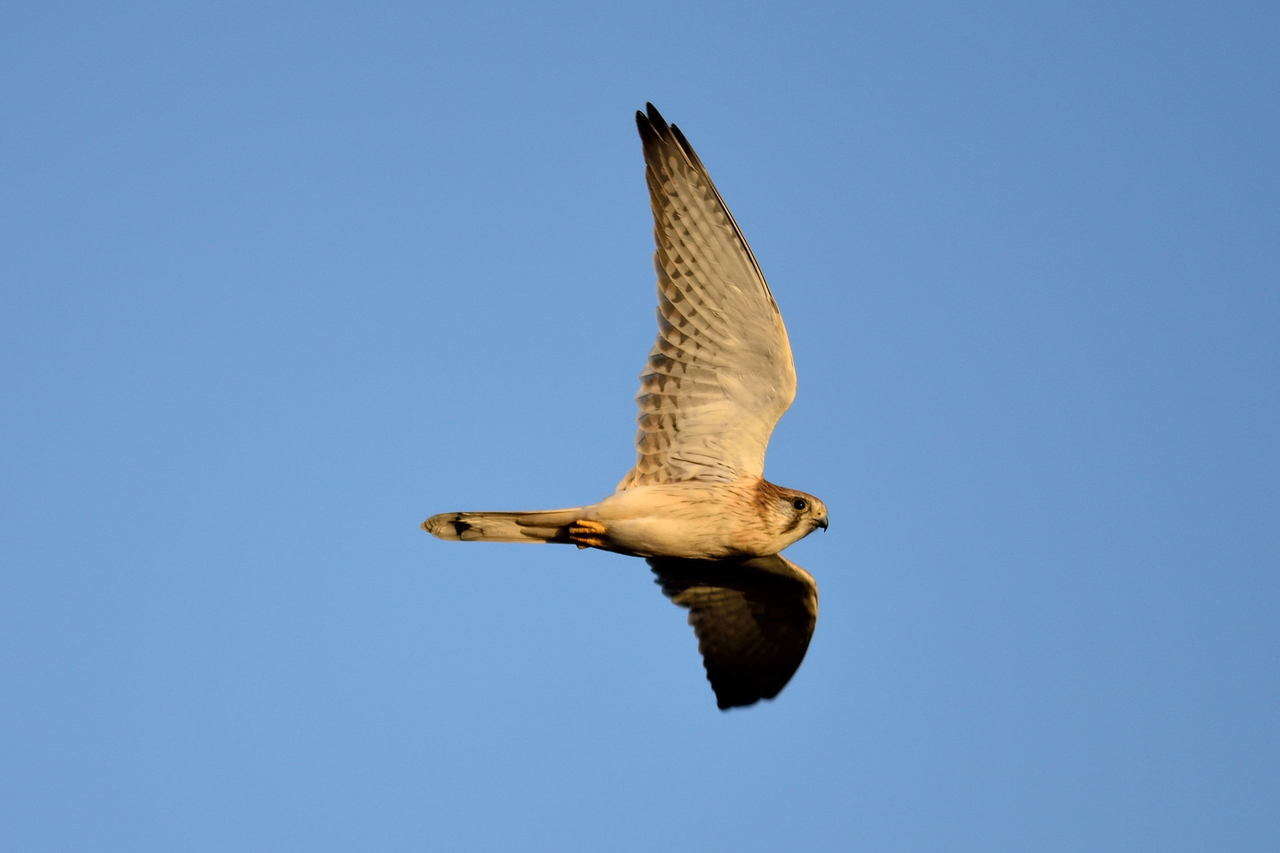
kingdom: Animalia
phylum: Chordata
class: Aves
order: Falconiformes
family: Falconidae
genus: Falco
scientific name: Falco cenchroides
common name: Nankeen kestrel
